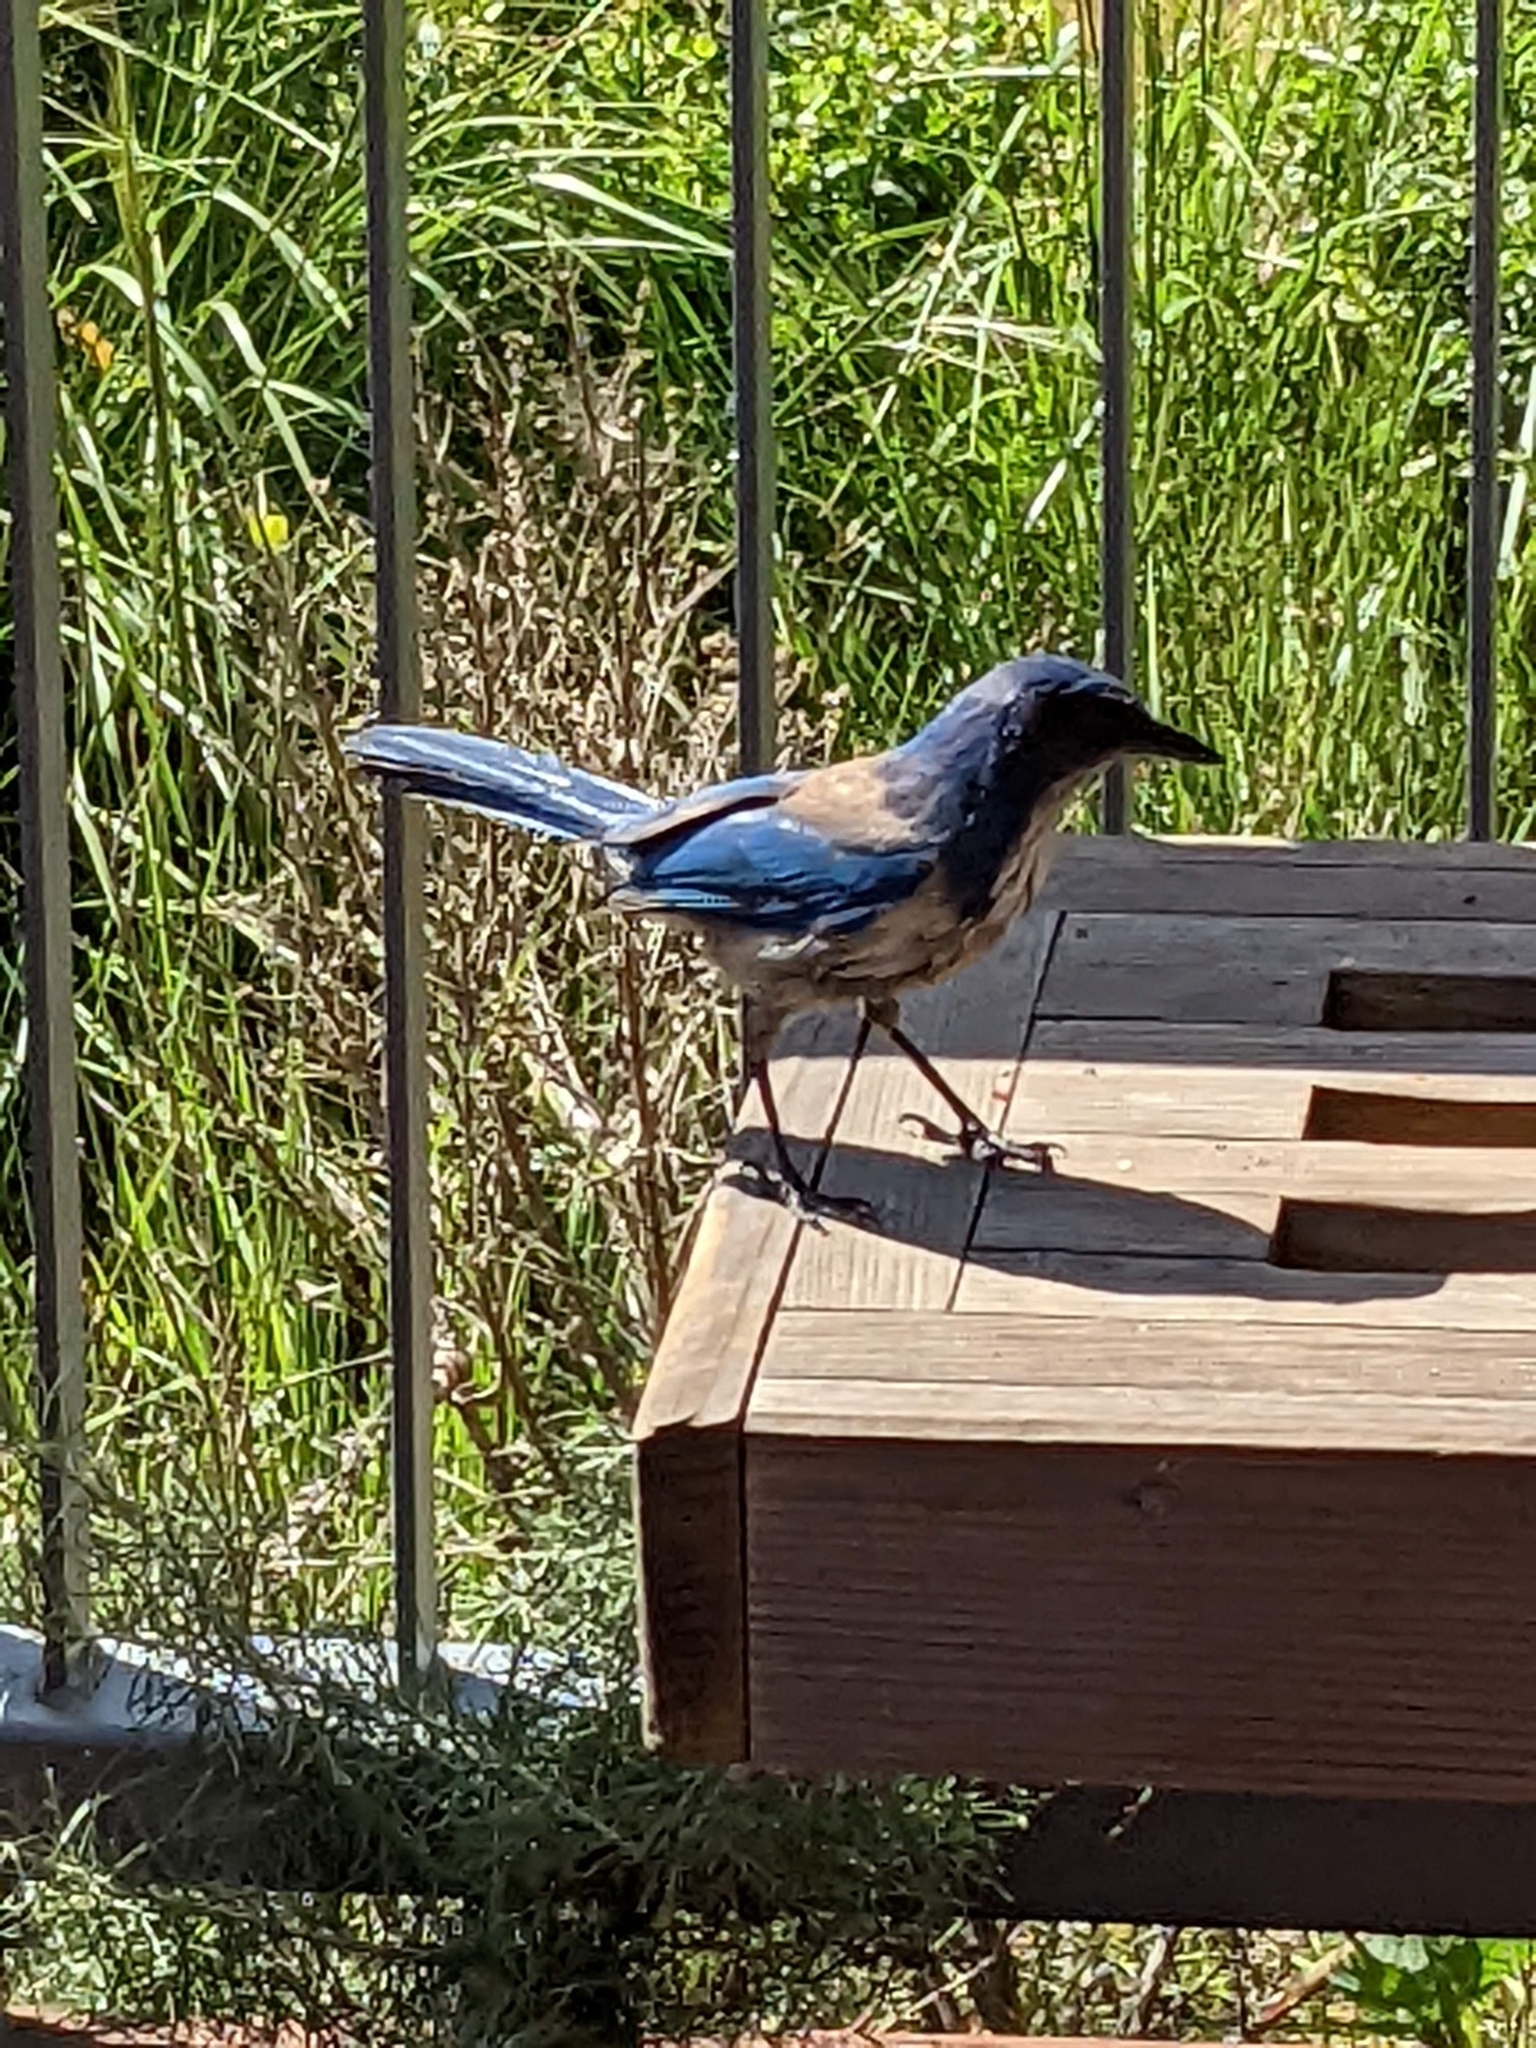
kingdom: Animalia
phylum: Chordata
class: Aves
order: Passeriformes
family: Corvidae
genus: Aphelocoma
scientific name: Aphelocoma californica
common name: California scrub-jay
